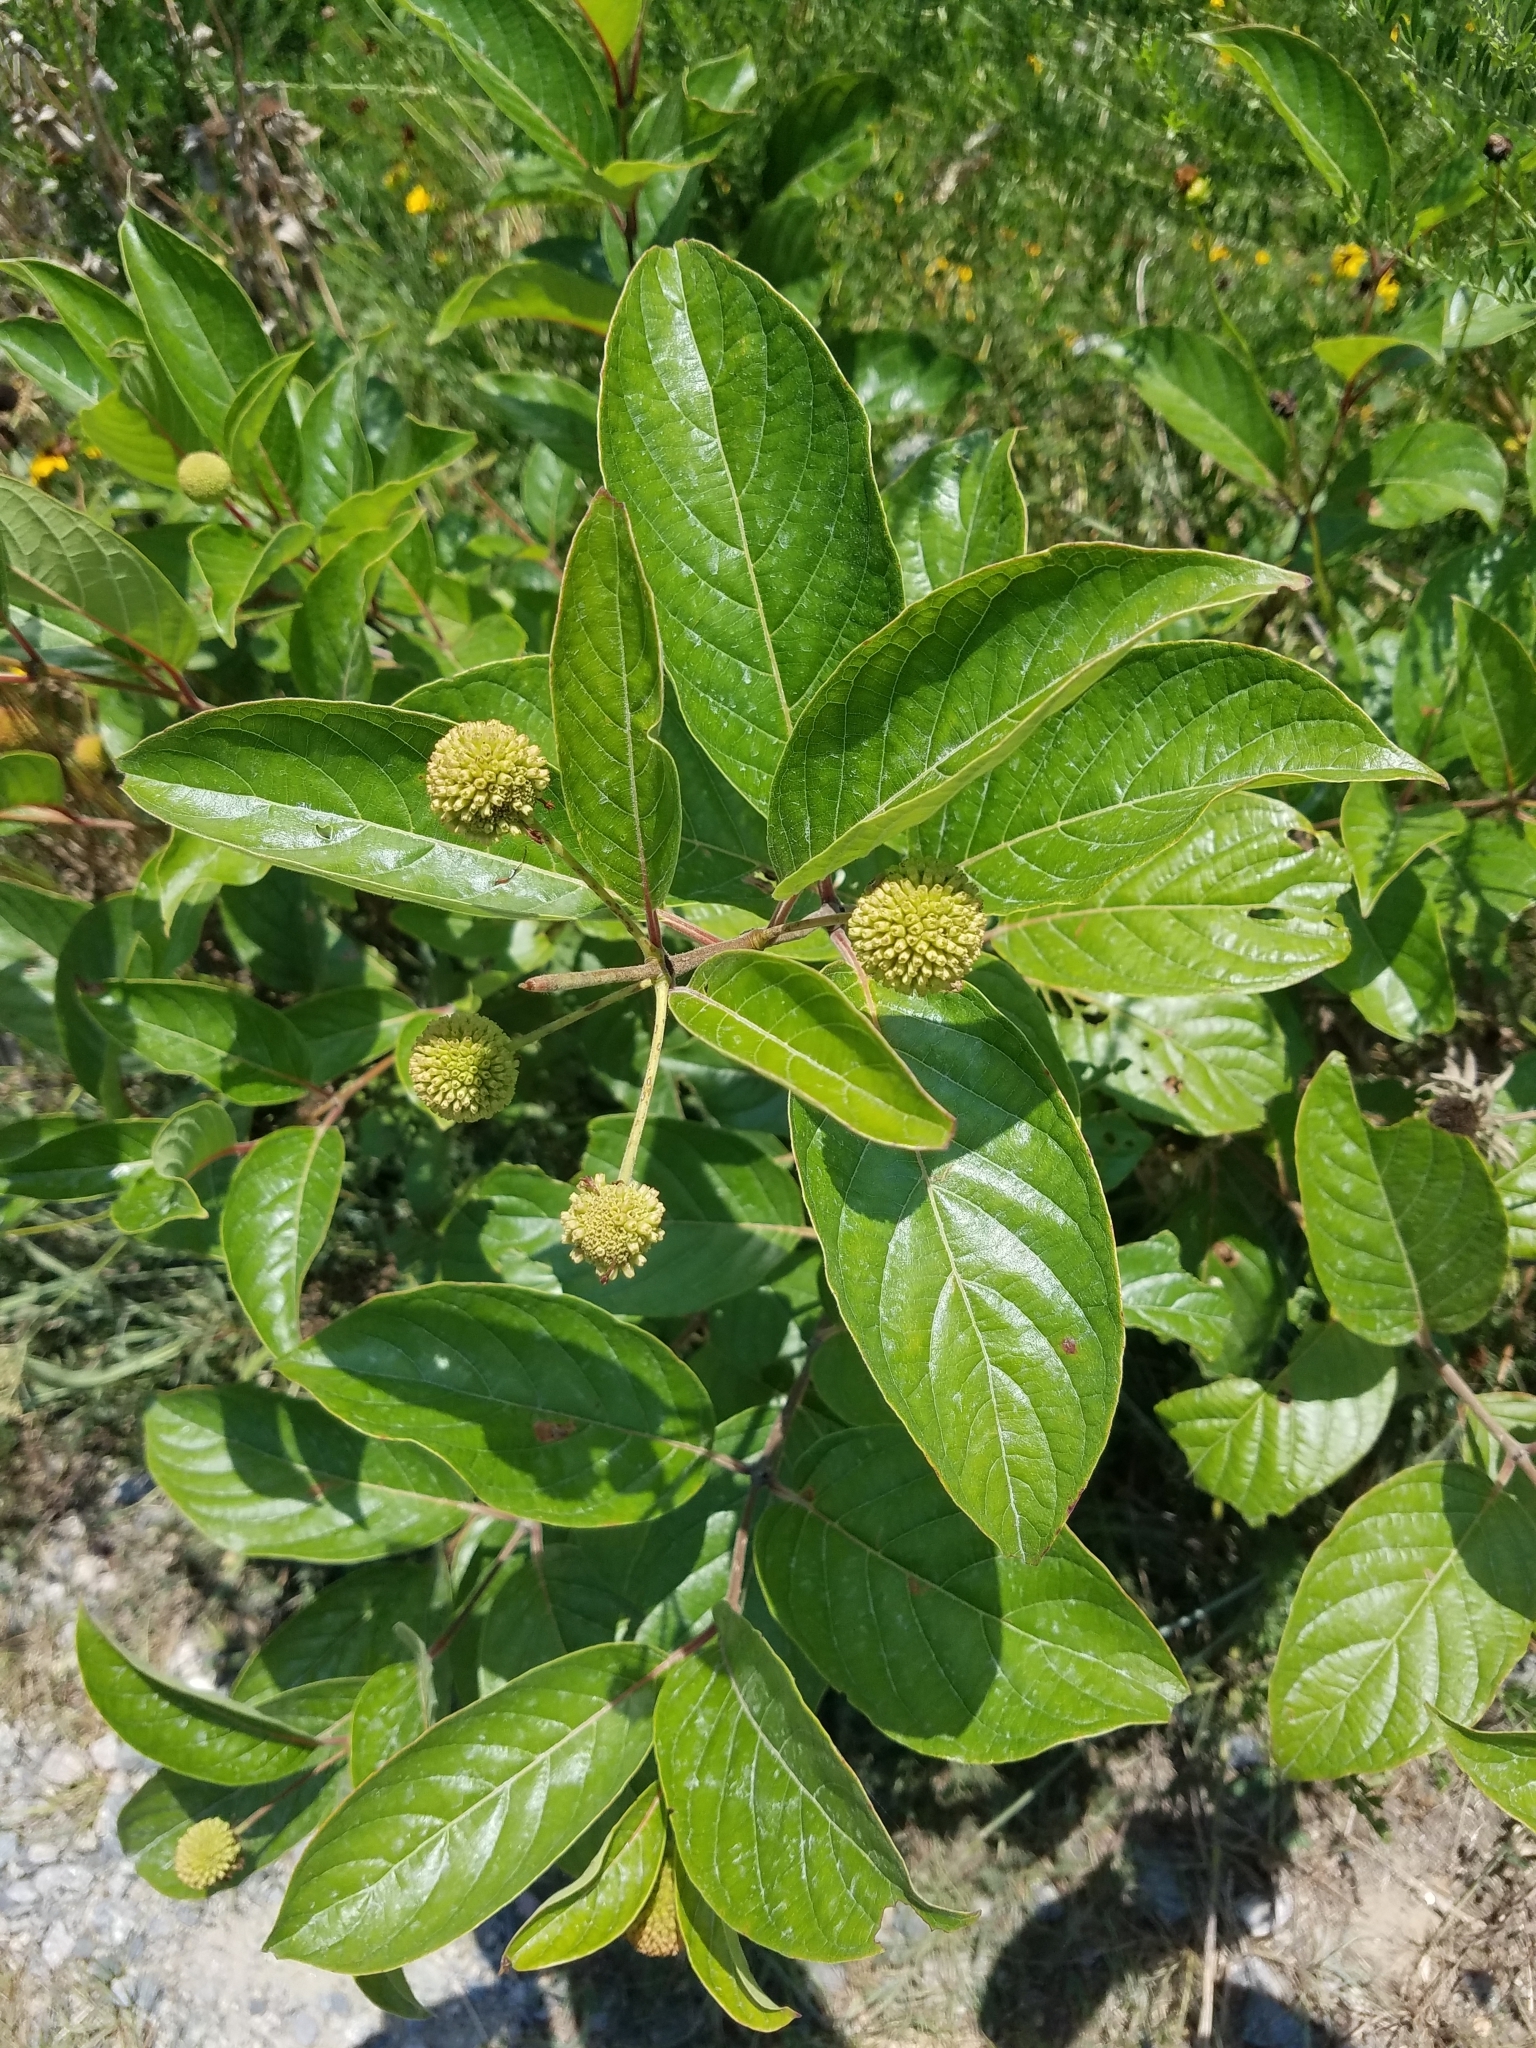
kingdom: Plantae
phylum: Tracheophyta
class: Magnoliopsida
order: Gentianales
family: Rubiaceae
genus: Cephalanthus
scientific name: Cephalanthus occidentalis
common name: Button-willow
